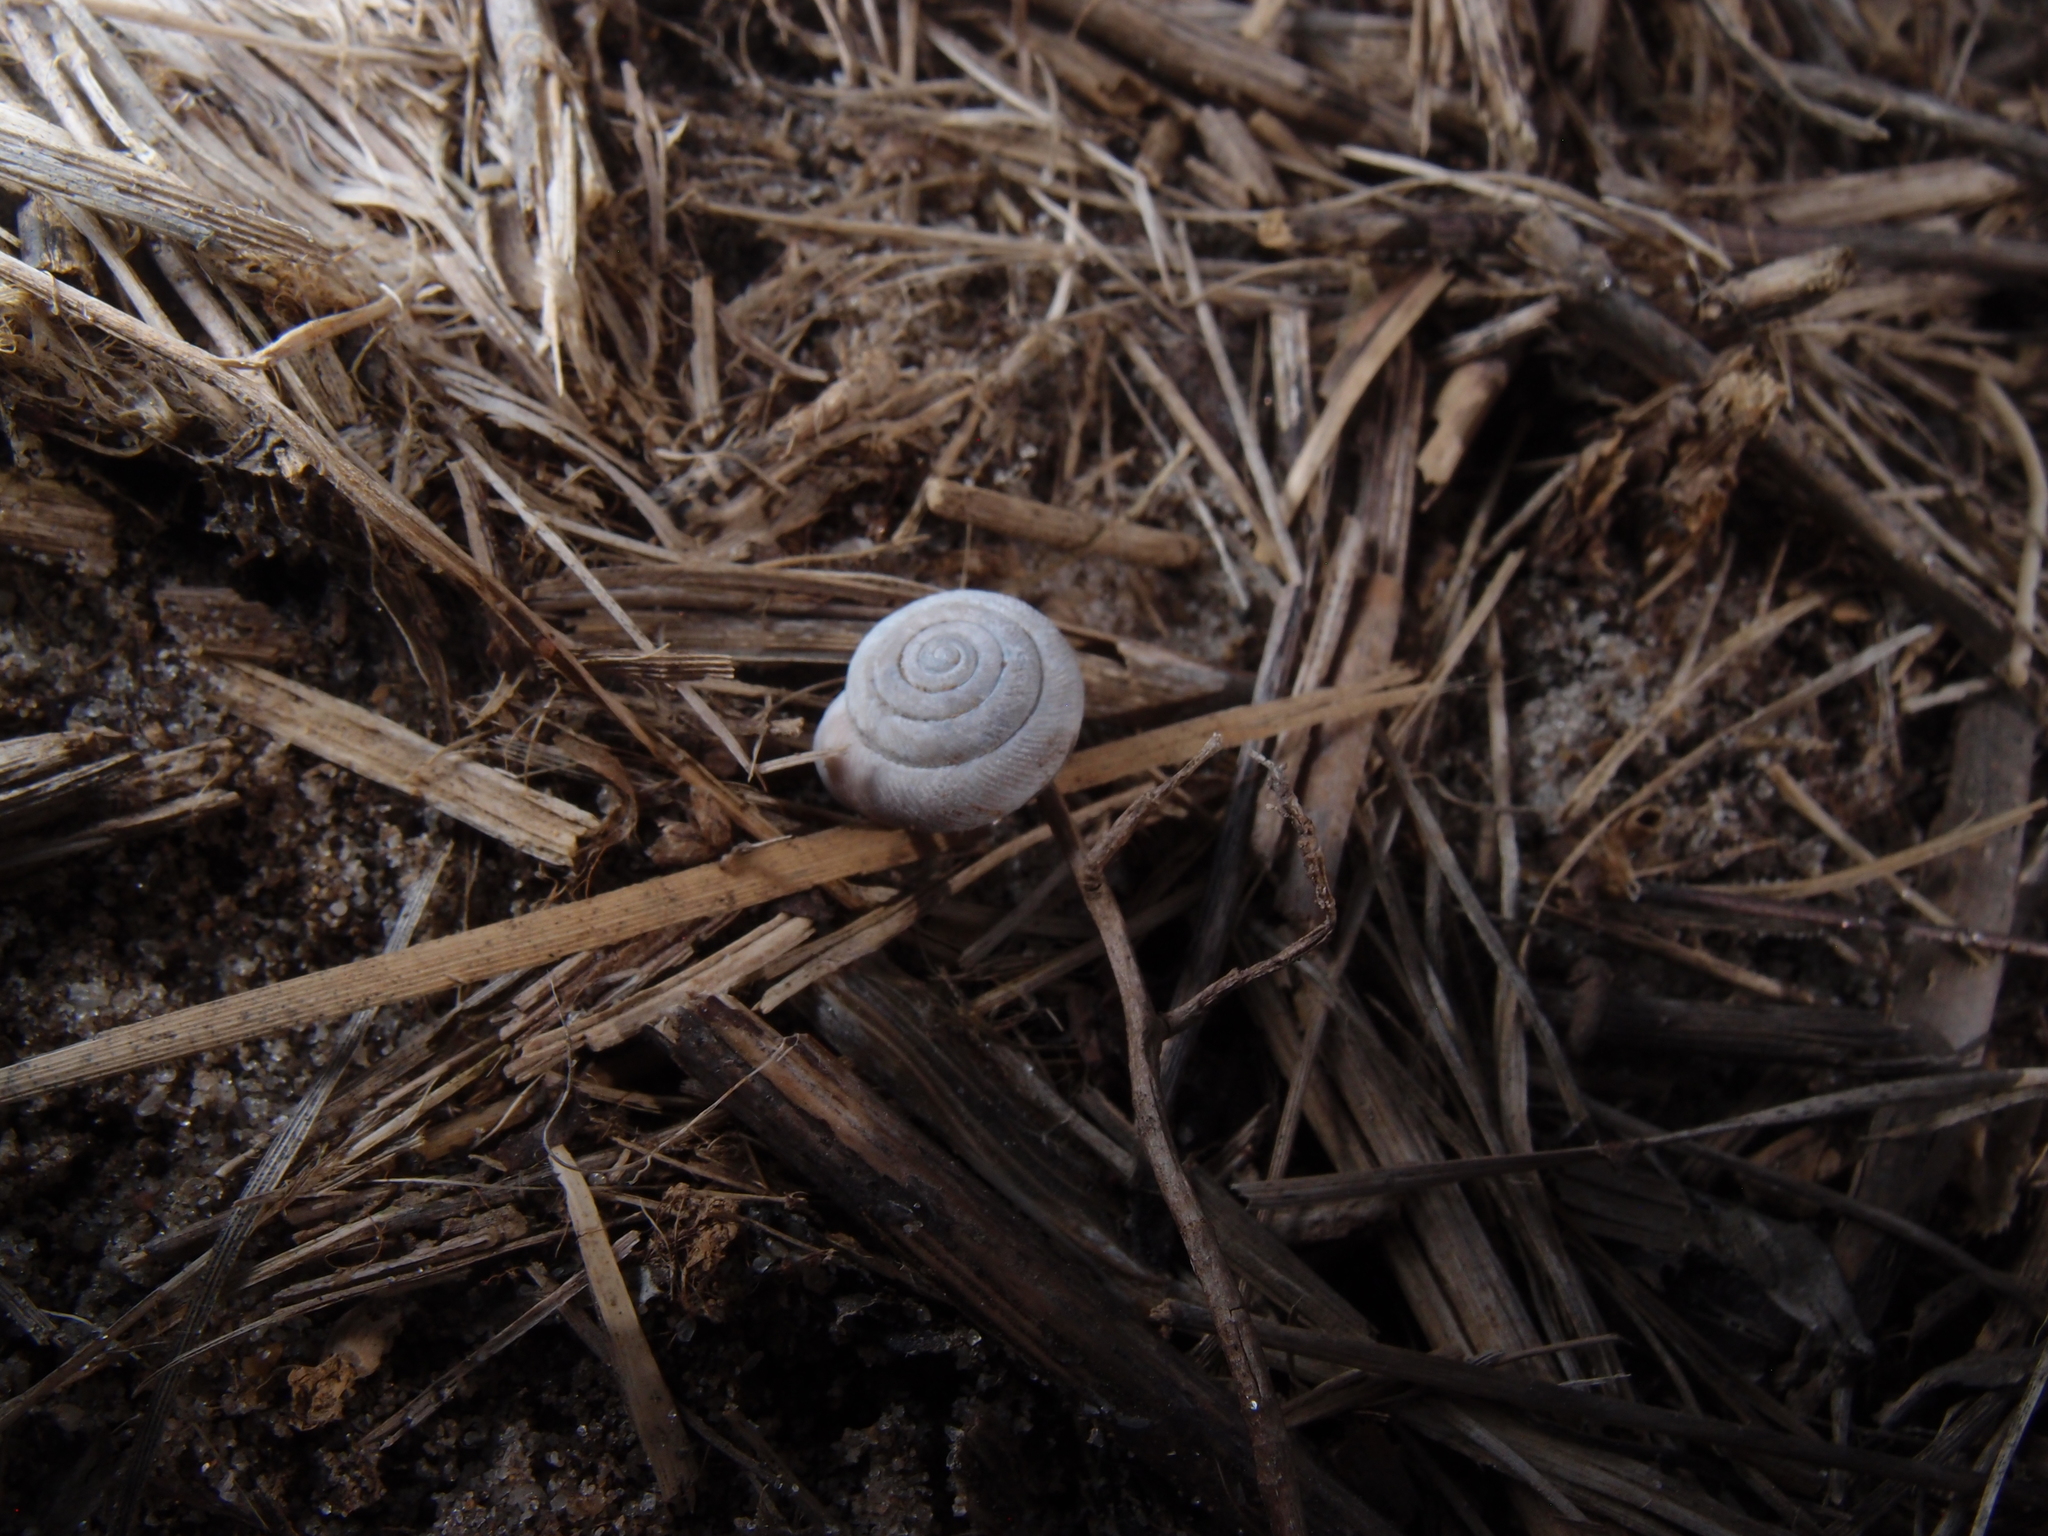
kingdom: Animalia
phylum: Mollusca
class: Gastropoda
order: Stylommatophora
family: Polygyridae
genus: Triodopsis
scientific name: Triodopsis hopetonensis
